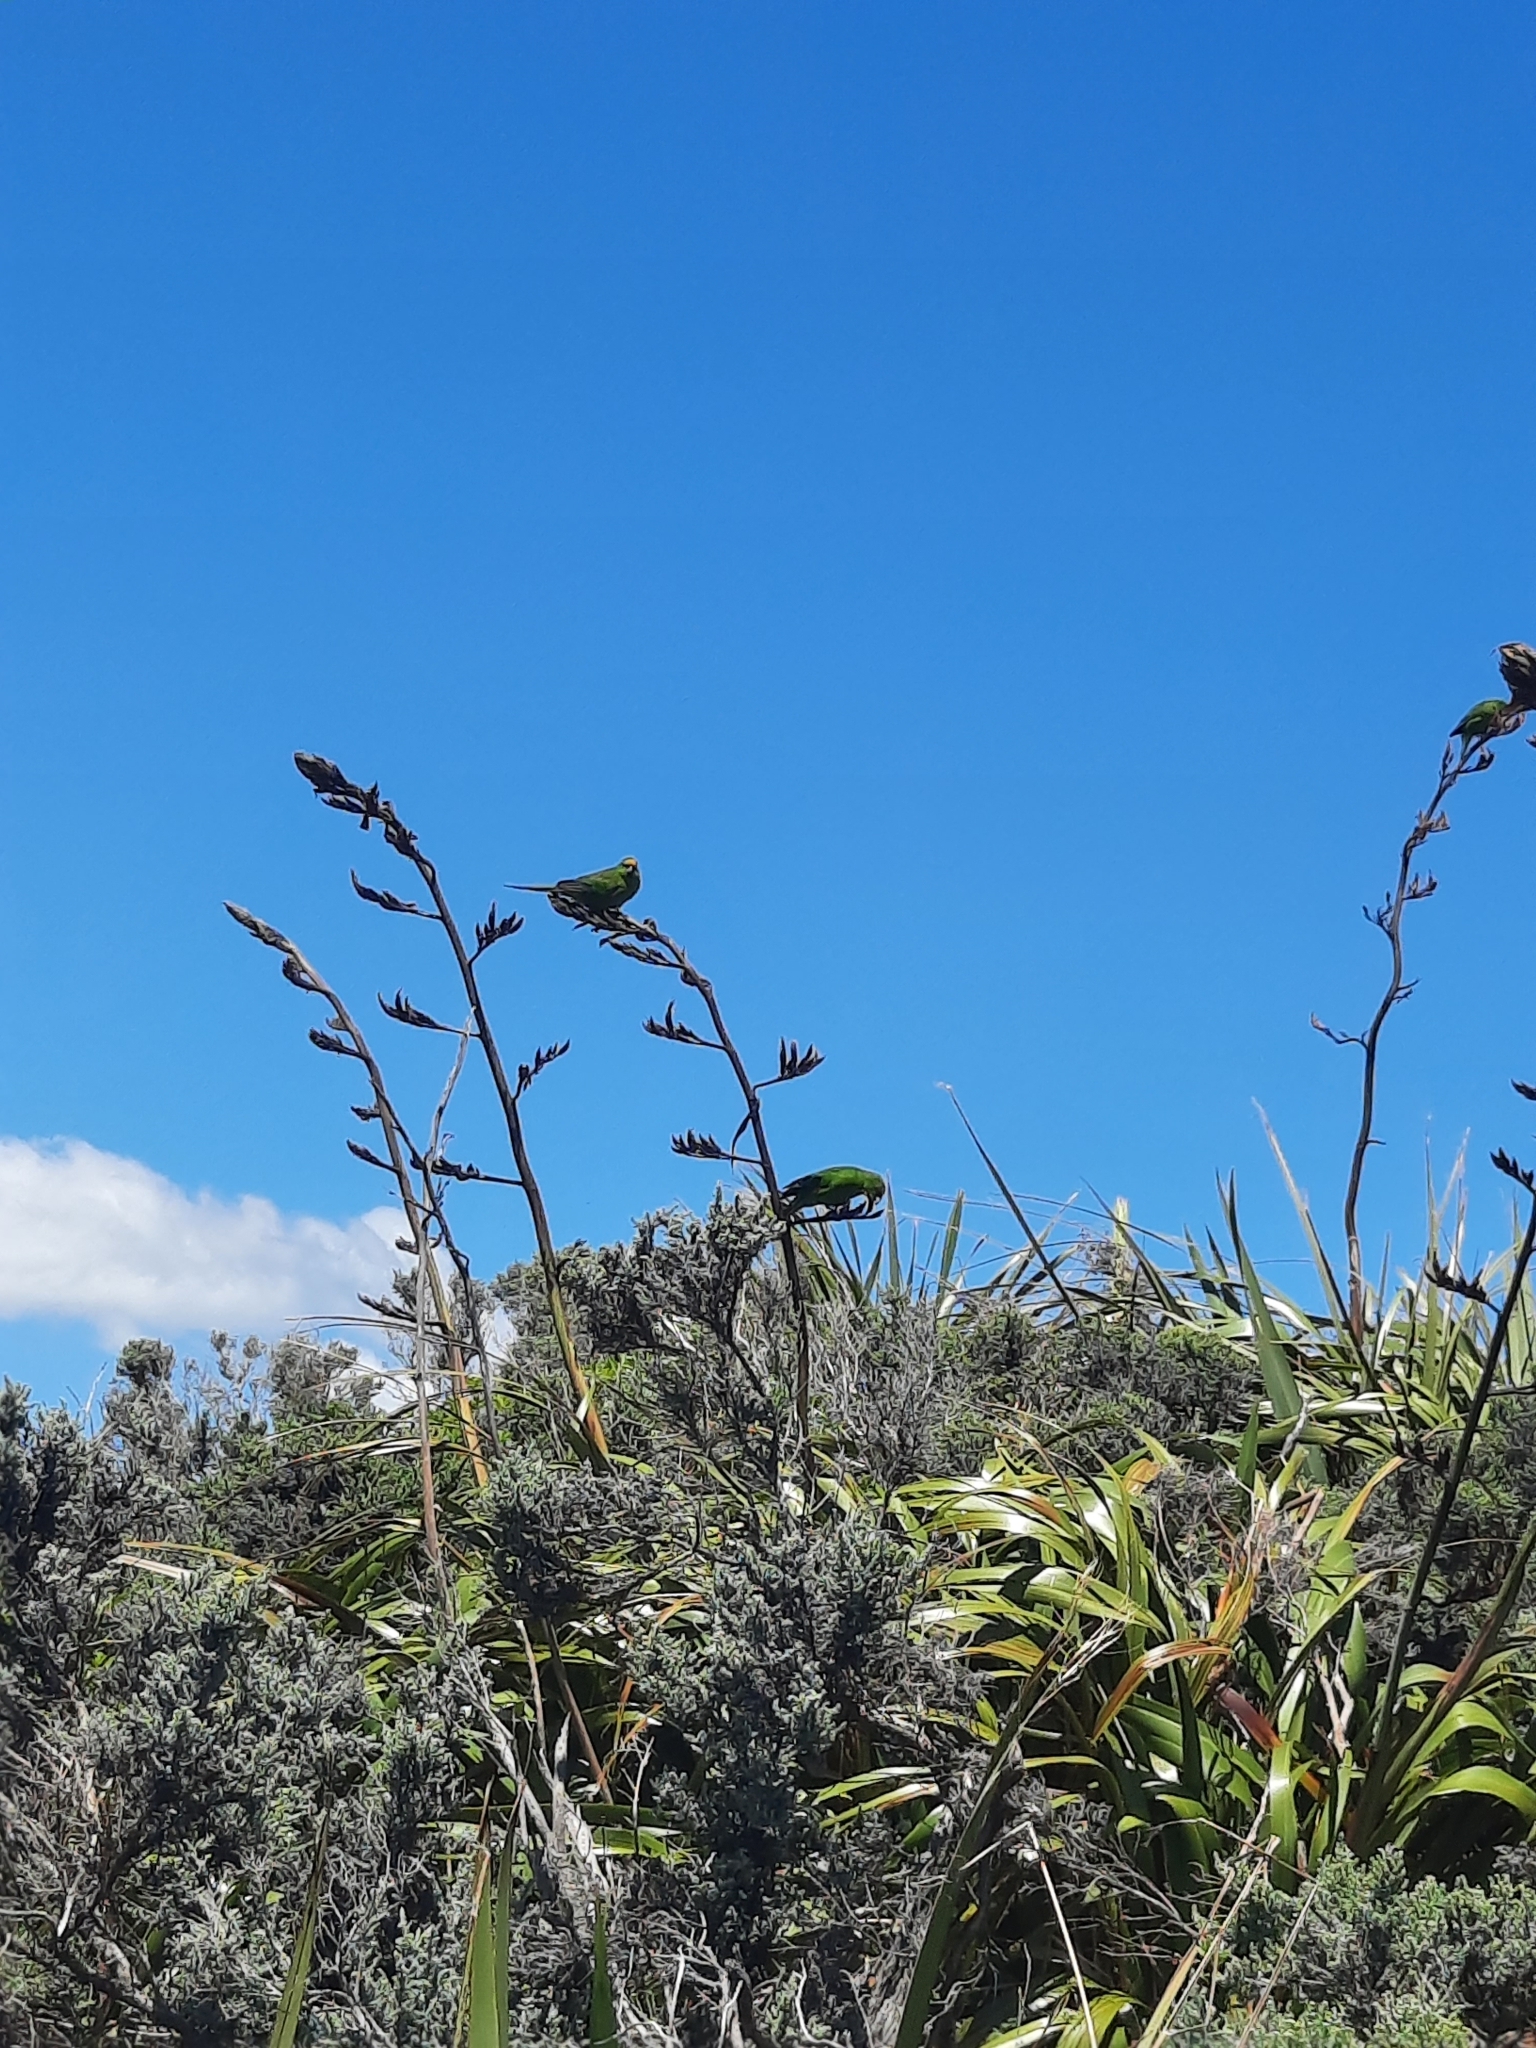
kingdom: Animalia
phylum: Chordata
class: Aves
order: Psittaciformes
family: Psittacidae
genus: Cyanoramphus
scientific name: Cyanoramphus auriceps
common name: Yellow-crowned parakeet
